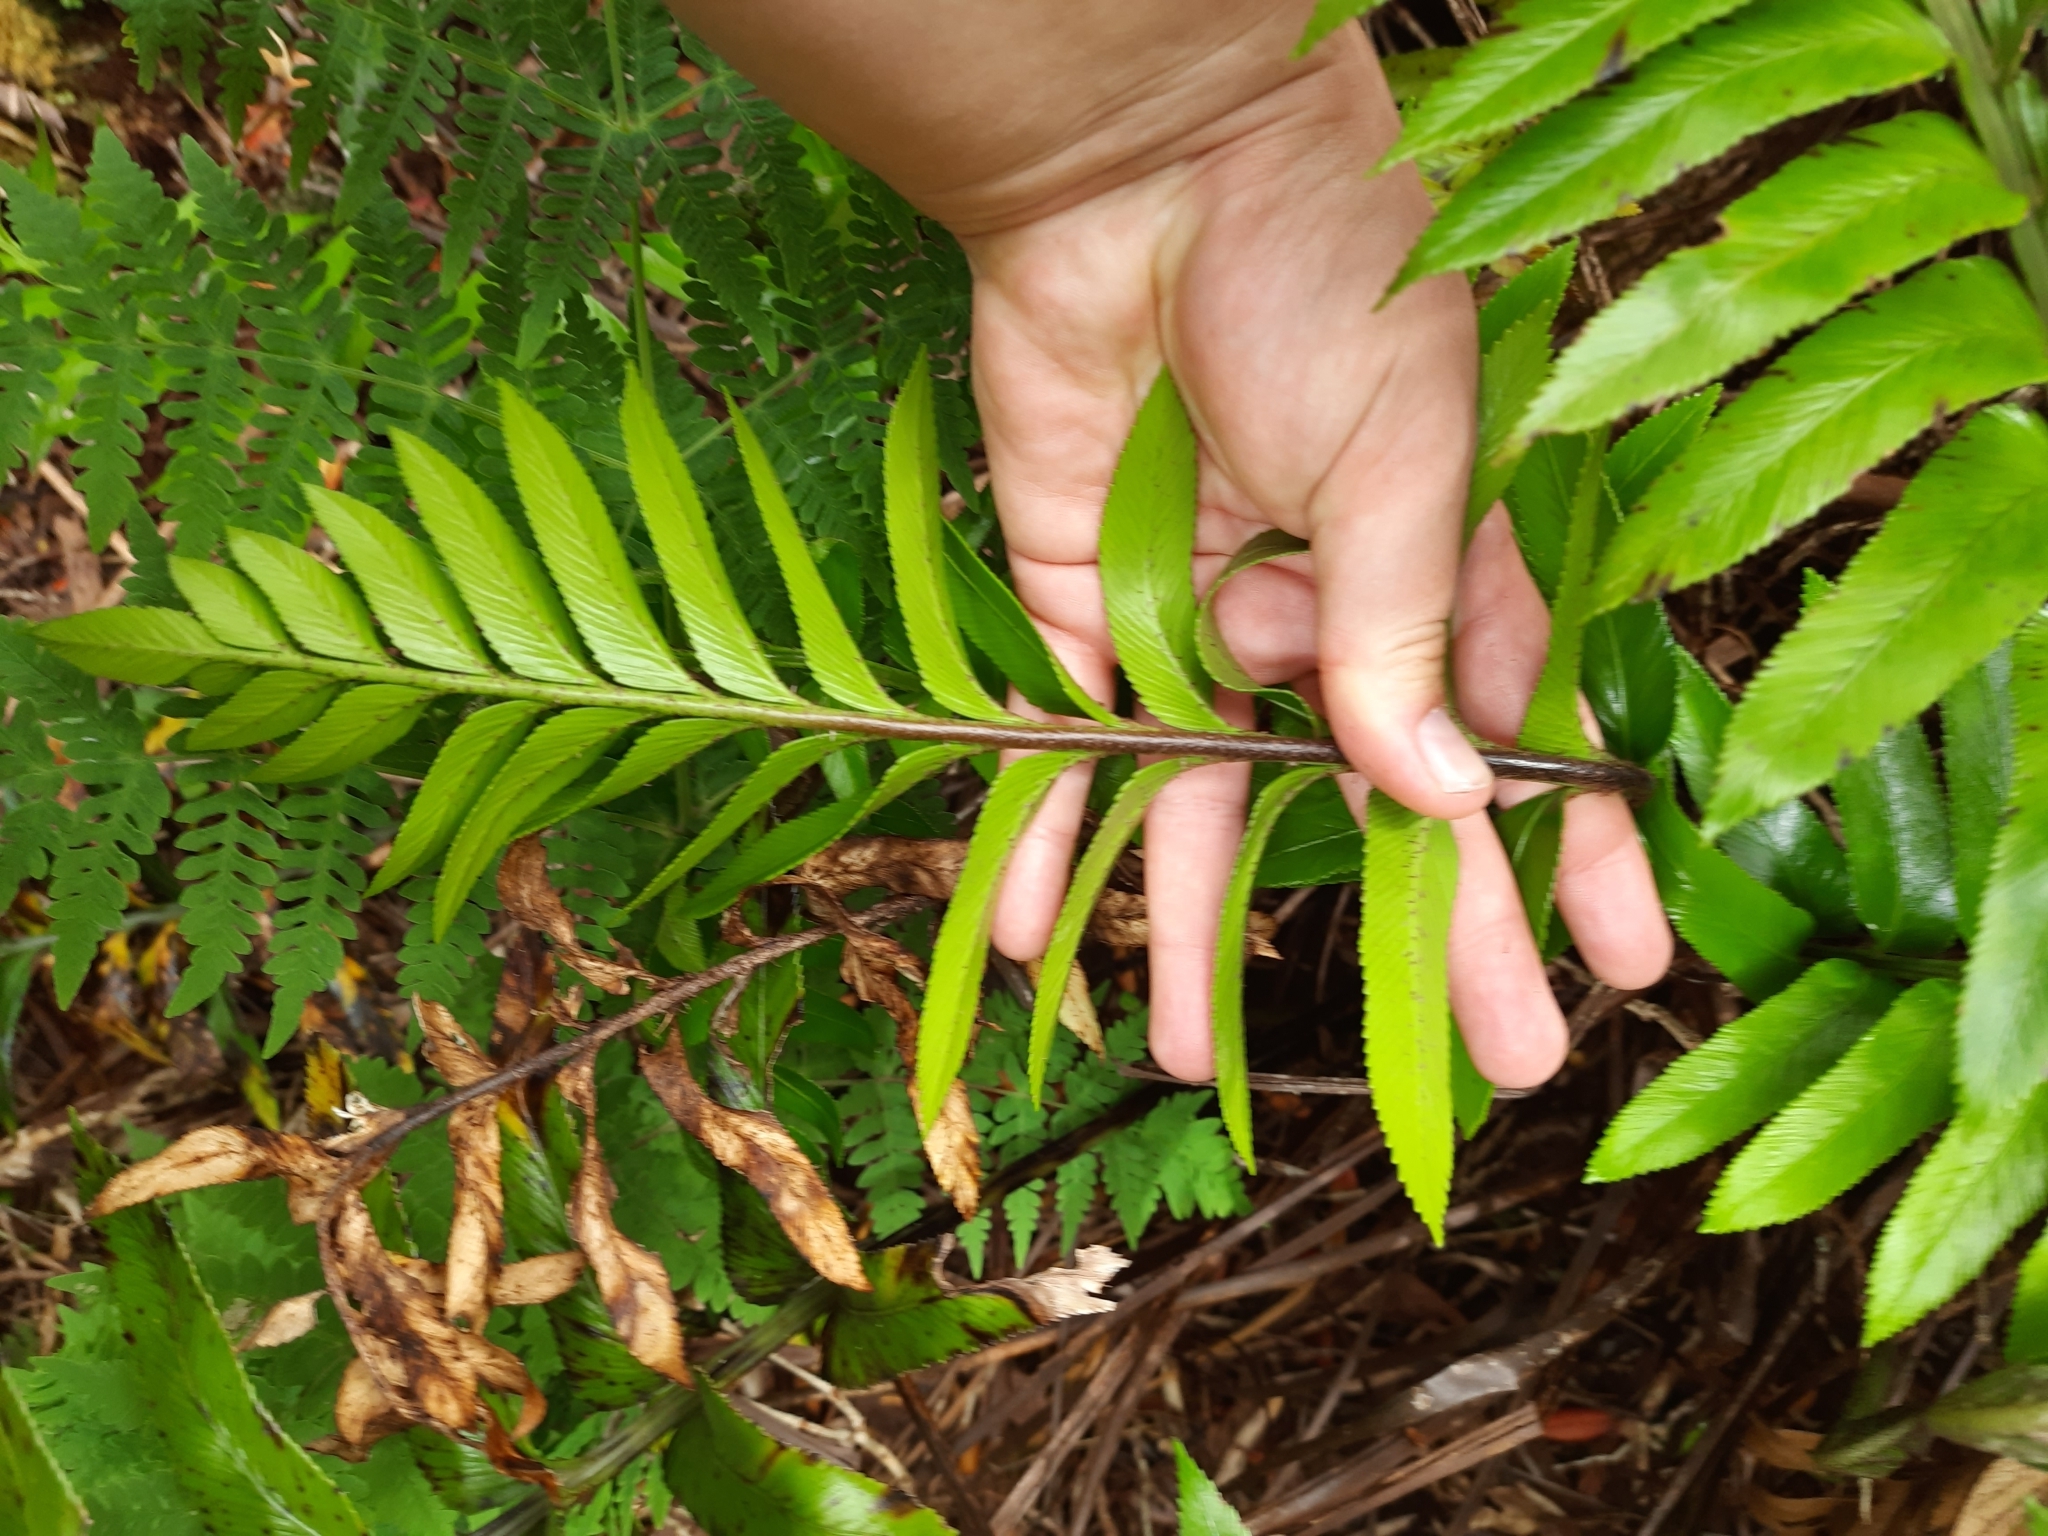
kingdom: Plantae
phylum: Tracheophyta
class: Polypodiopsida
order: Polypodiales
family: Aspleniaceae
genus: Asplenium
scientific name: Asplenium obtusatum
